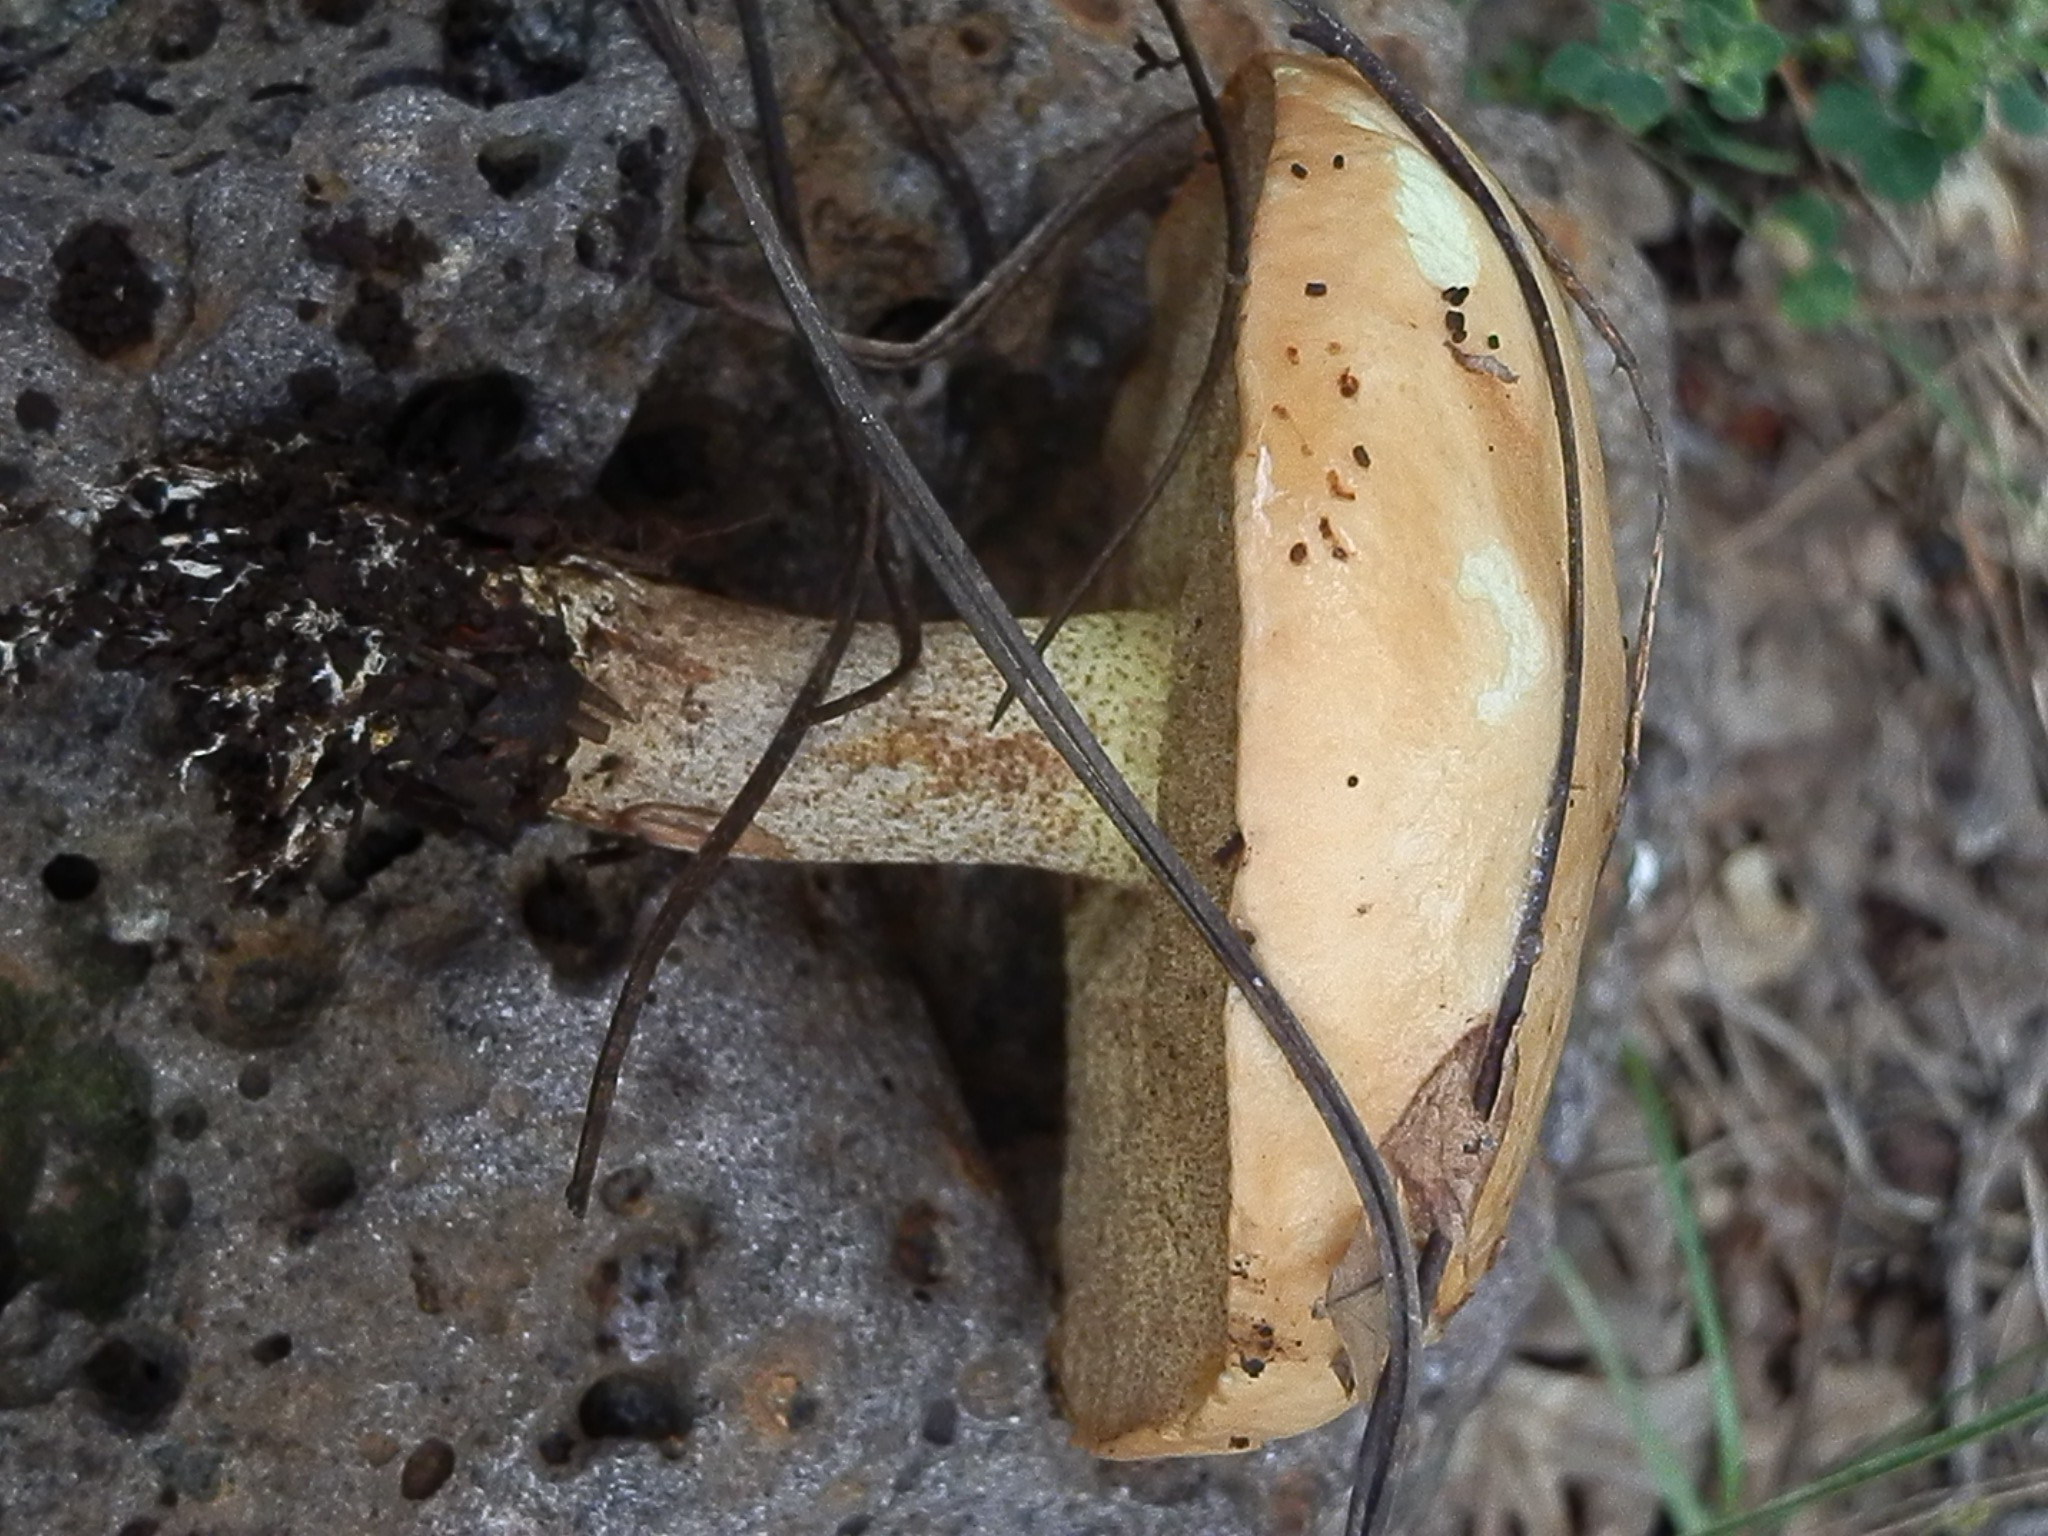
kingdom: Fungi
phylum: Basidiomycota
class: Agaricomycetes
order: Boletales
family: Suillaceae
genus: Suillus
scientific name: Suillus kaibabensis
